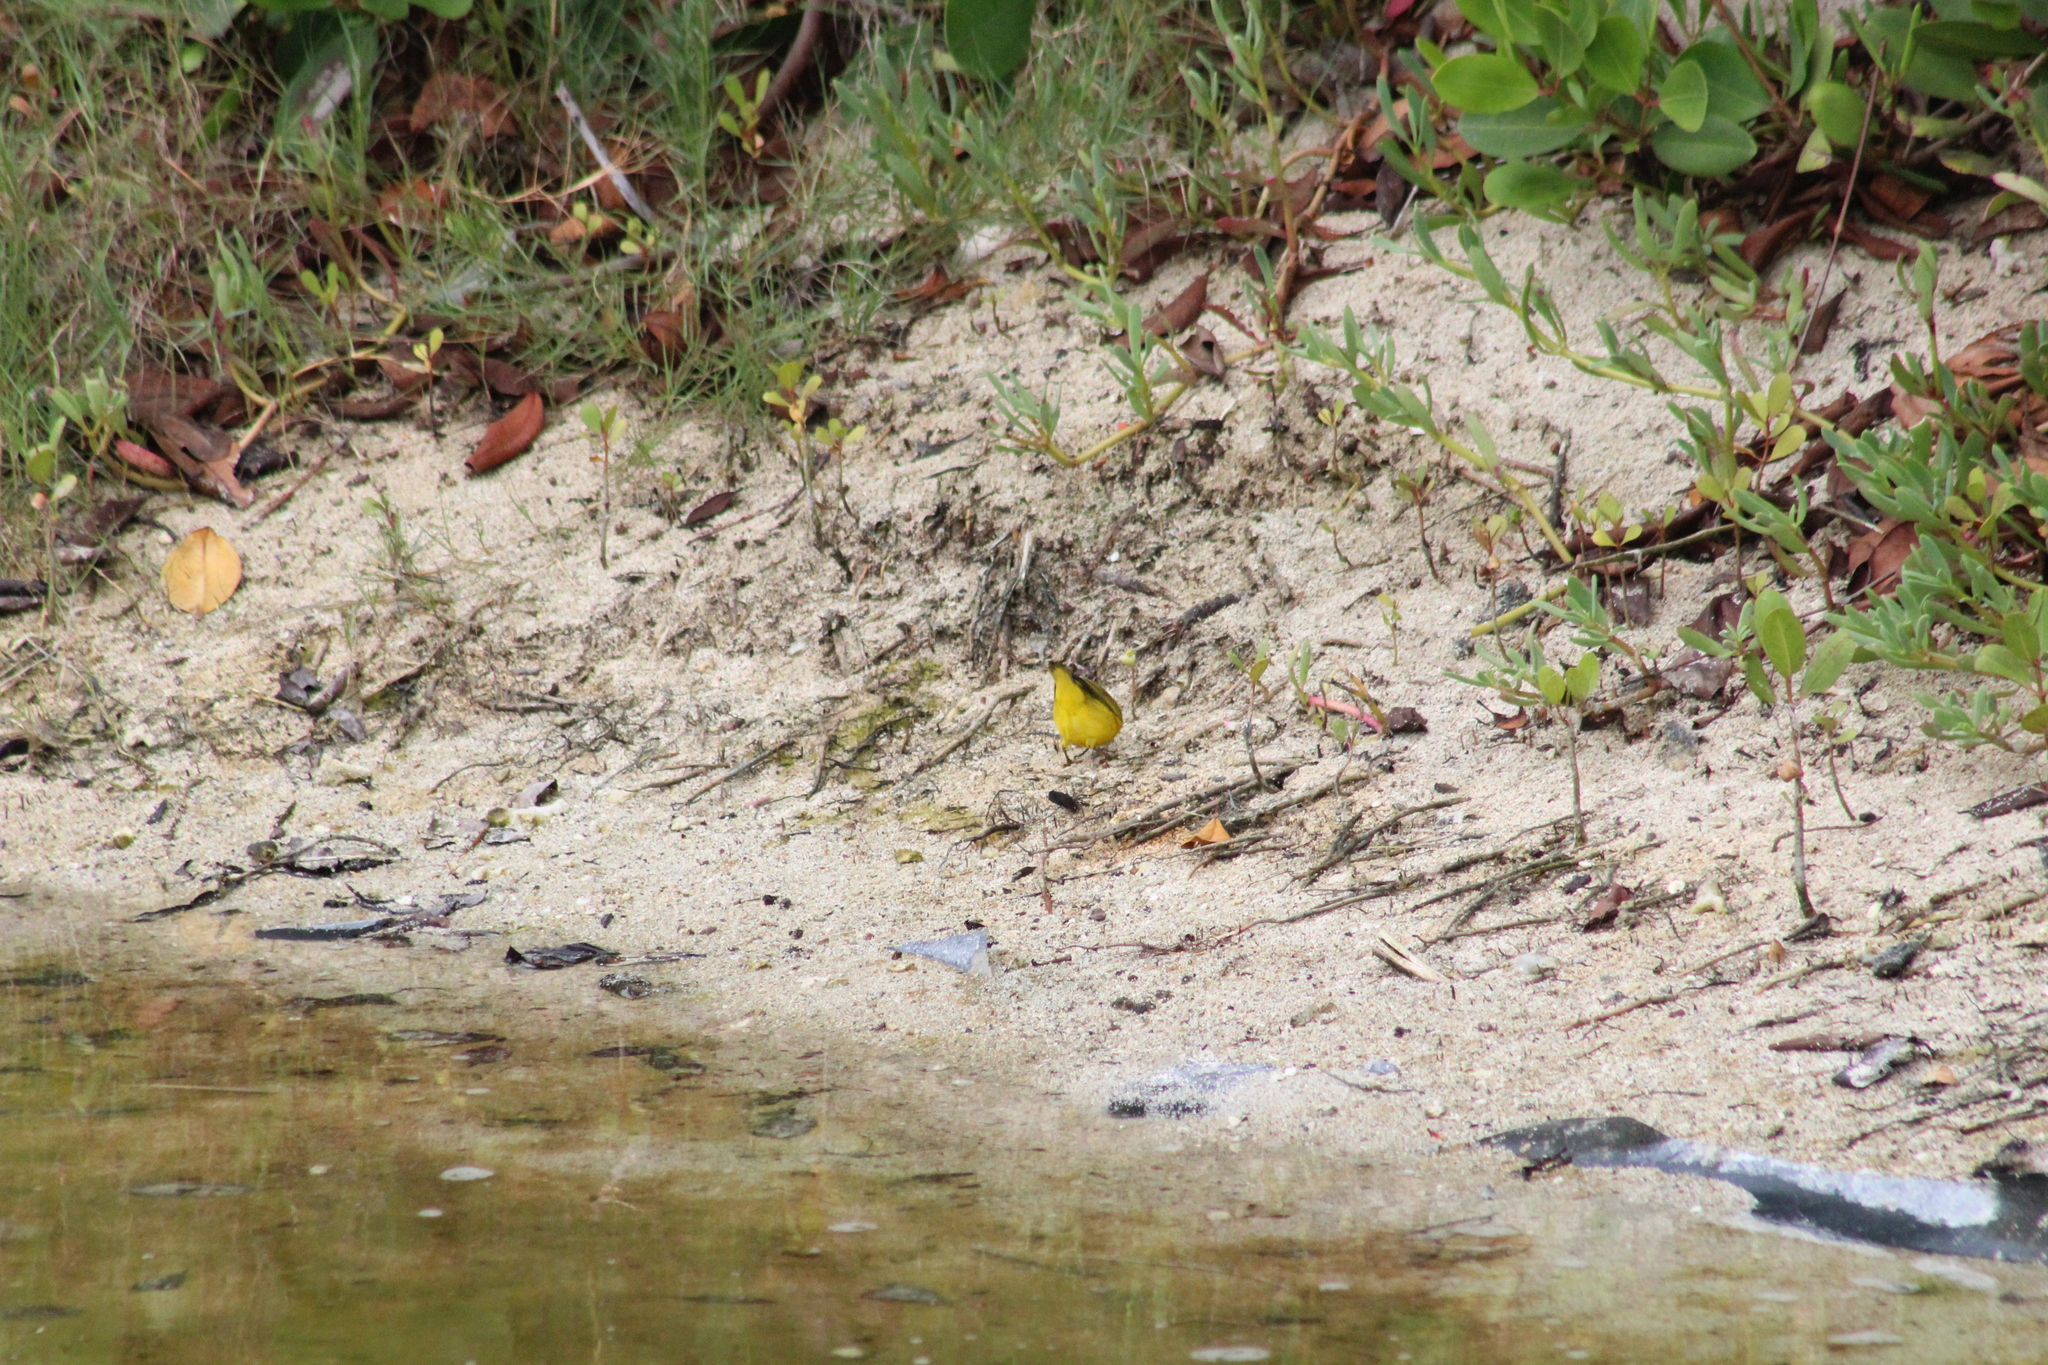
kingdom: Animalia
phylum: Chordata
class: Aves
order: Passeriformes
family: Parulidae
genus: Setophaga
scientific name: Setophaga petechia
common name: Yellow warbler
